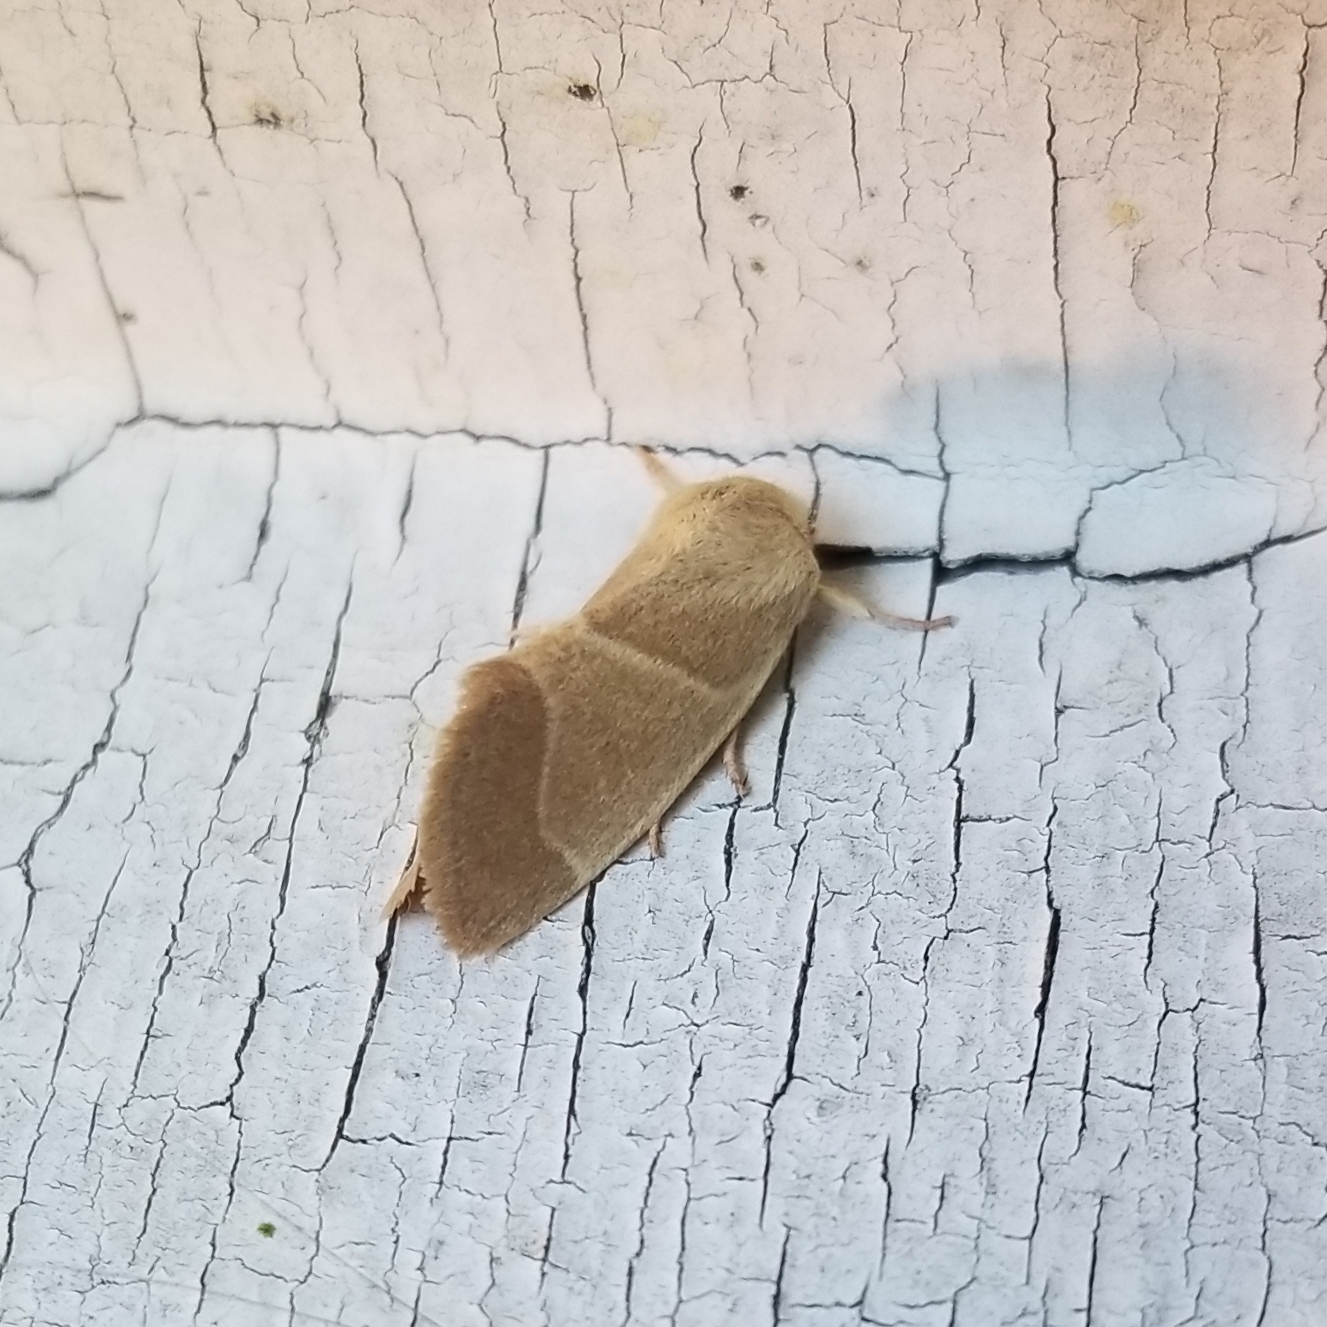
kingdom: Animalia
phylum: Arthropoda
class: Insecta
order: Lepidoptera
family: Noctuidae
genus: Cosmia
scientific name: Cosmia calami
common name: American dun-bar moth
